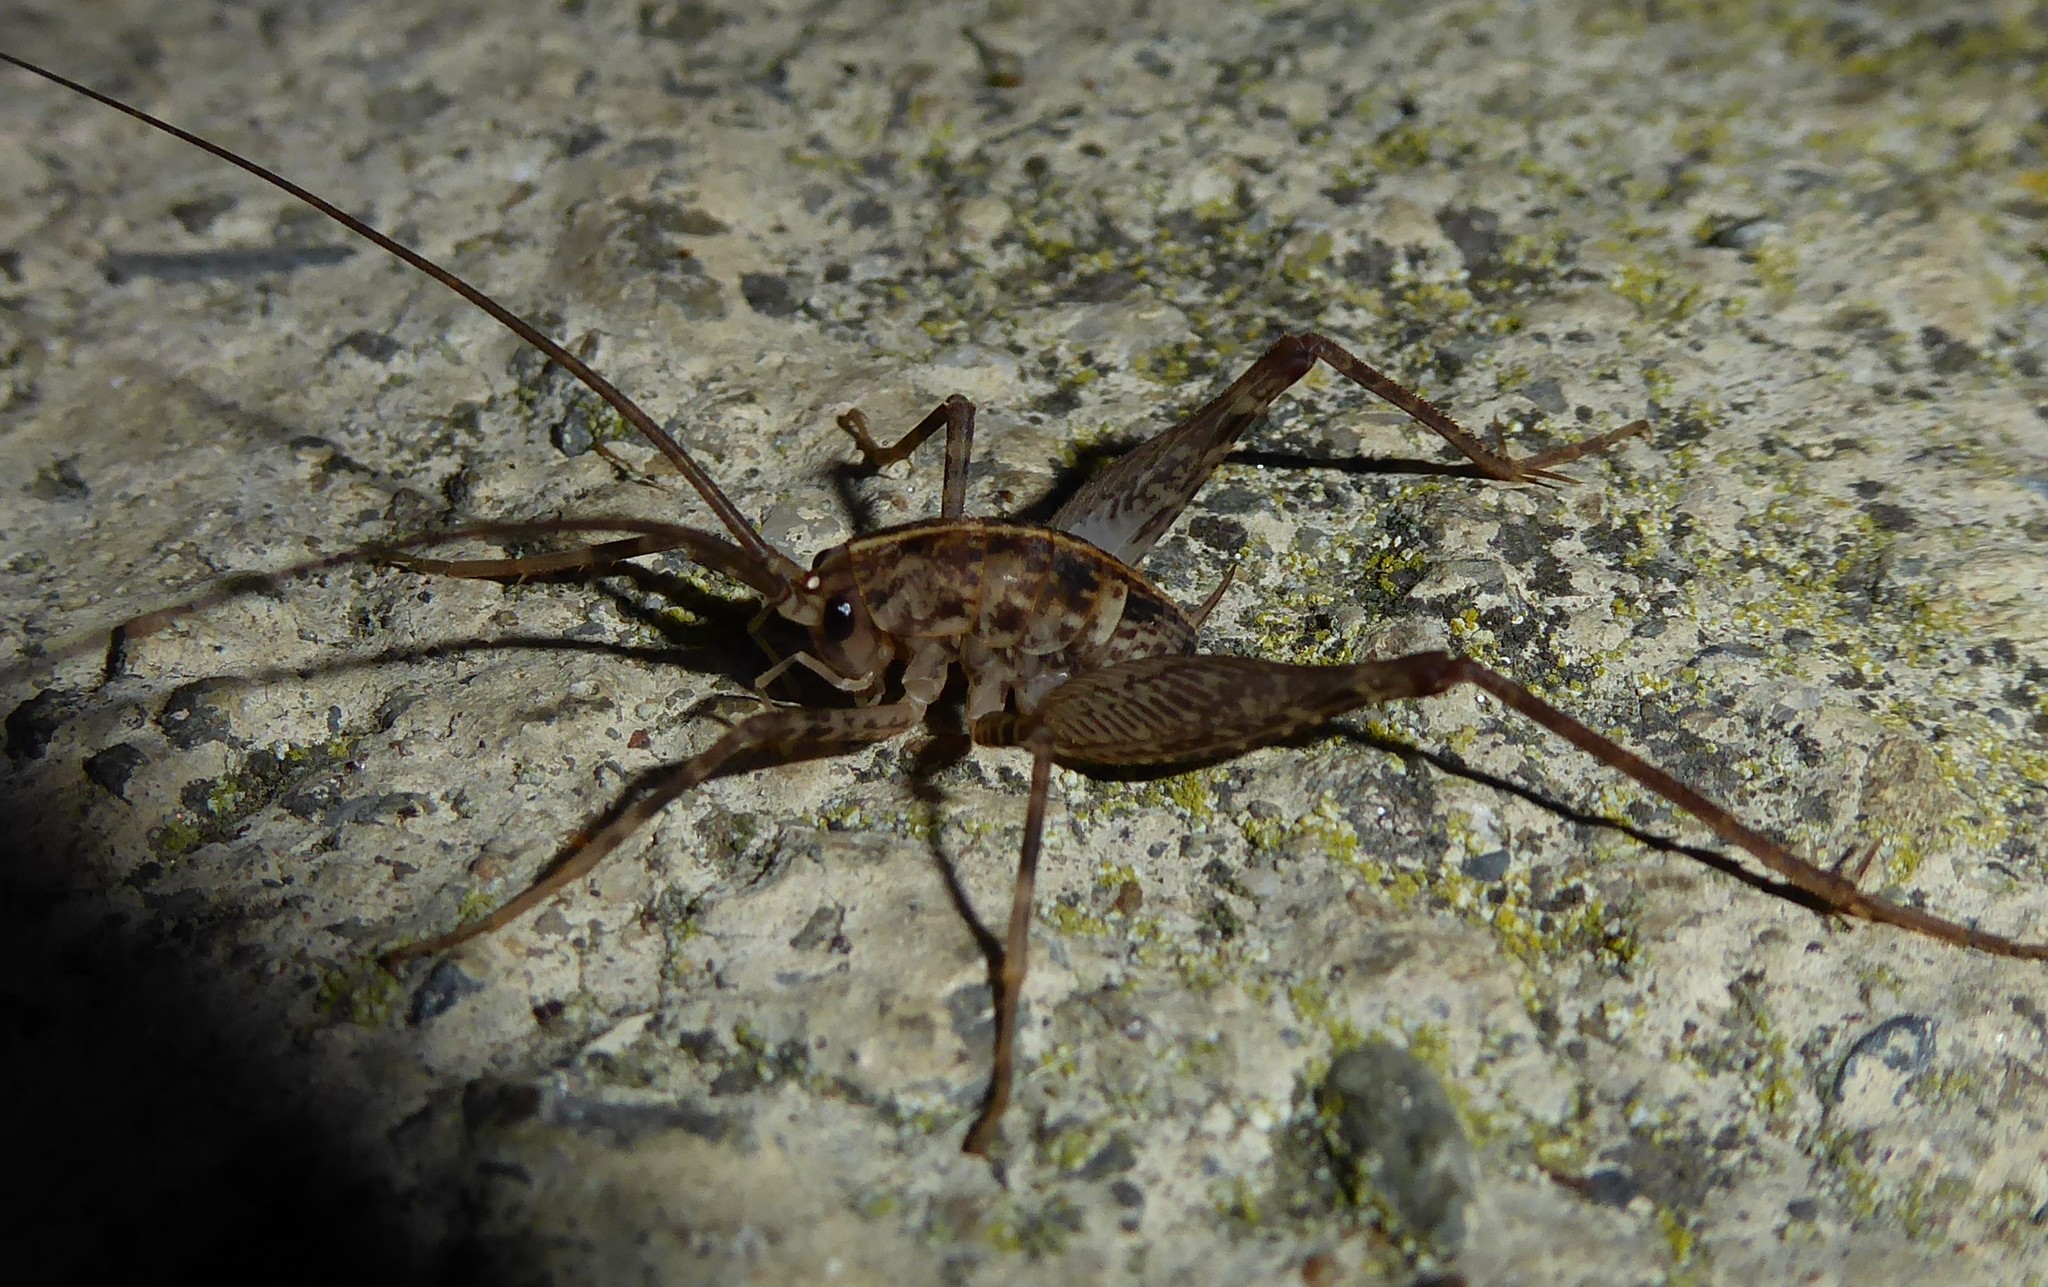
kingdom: Animalia
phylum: Arthropoda
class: Insecta
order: Orthoptera
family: Rhaphidophoridae
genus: Pleioplectron
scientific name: Pleioplectron simplex
